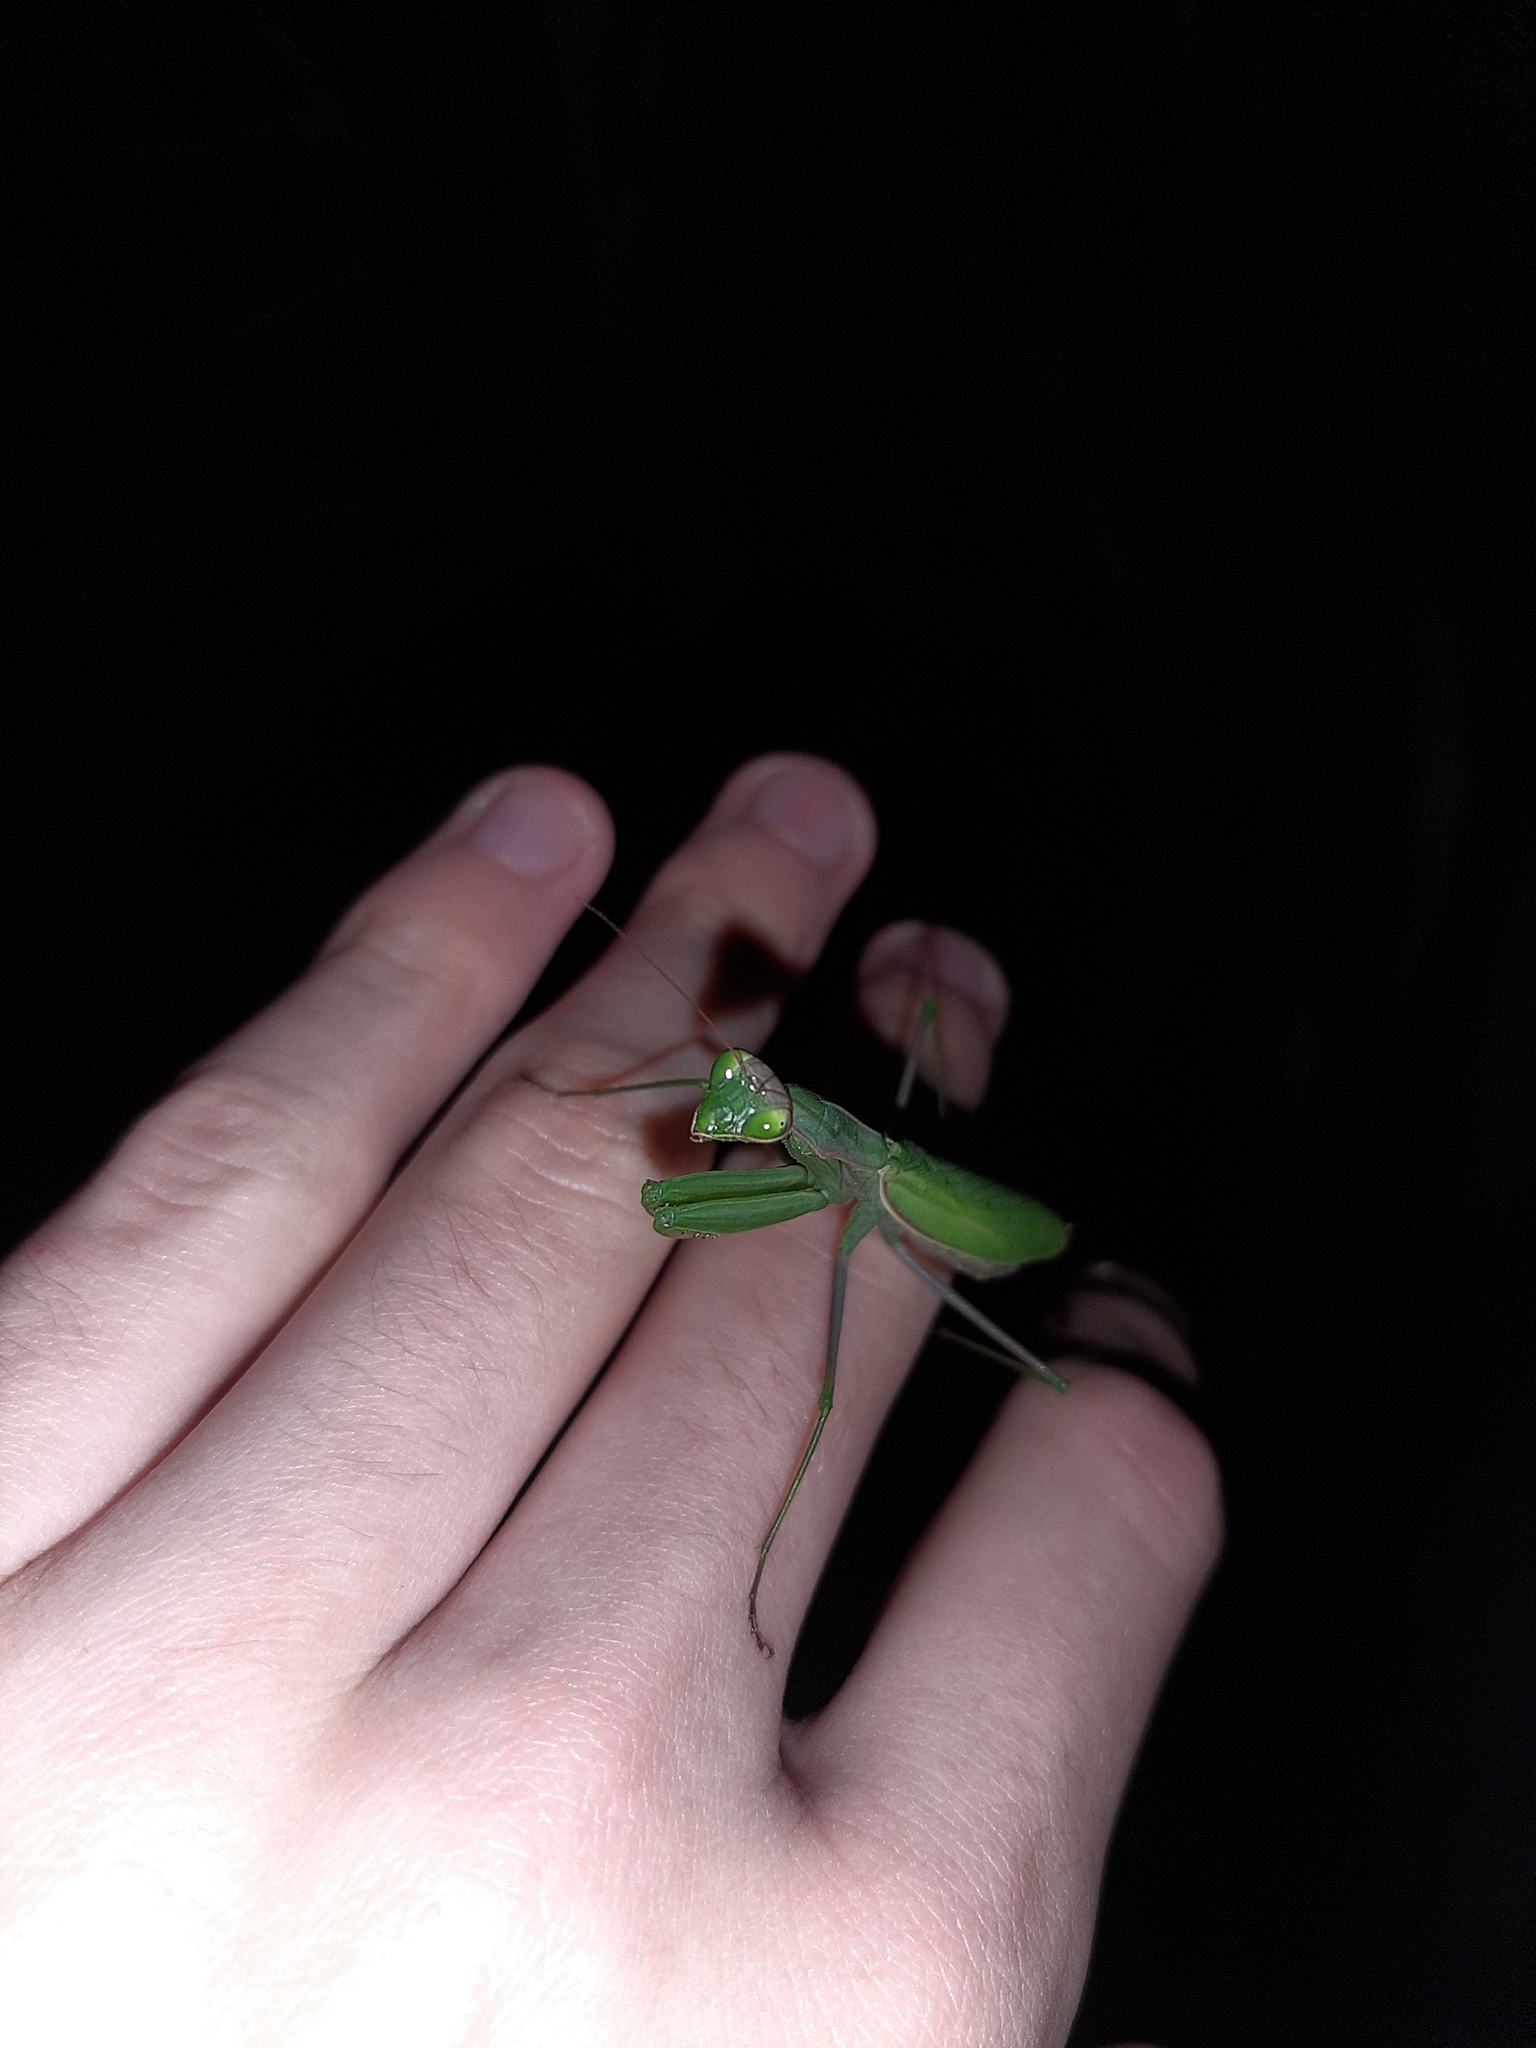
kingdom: Animalia
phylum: Arthropoda
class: Insecta
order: Mantodea
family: Mantidae
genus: Mantis
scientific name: Mantis religiosa
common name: Praying mantis
